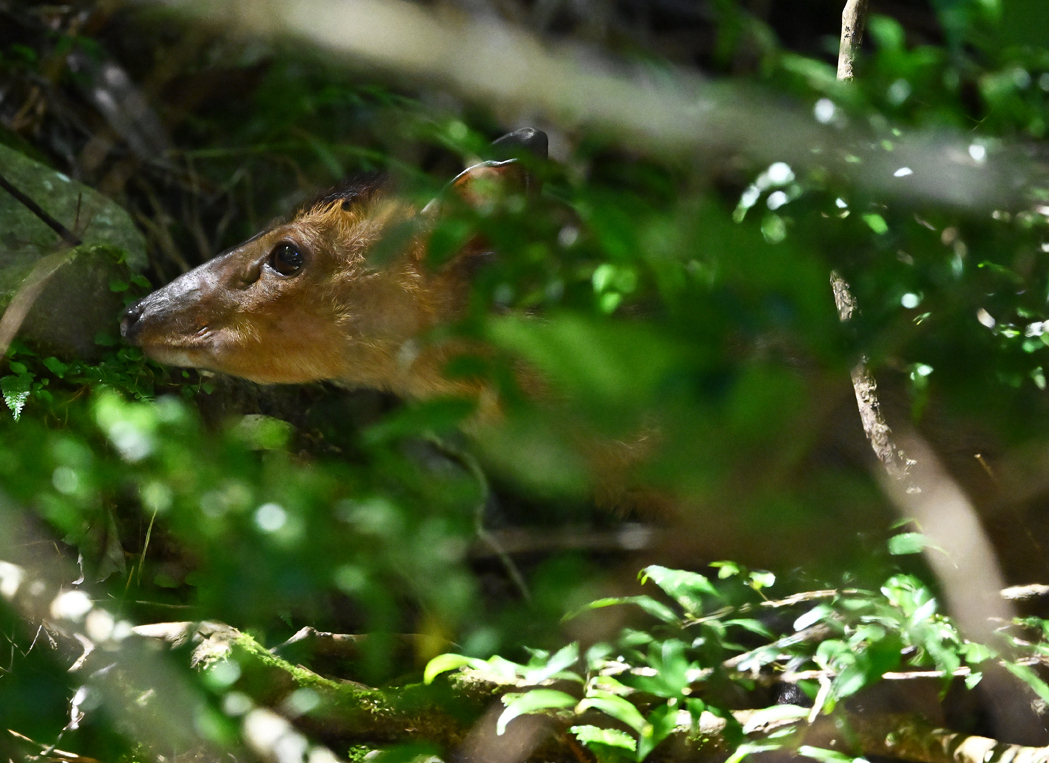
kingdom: Animalia
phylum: Chordata
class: Mammalia
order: Artiodactyla
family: Cervidae
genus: Muntiacus
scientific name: Muntiacus reevesi
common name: Reeves' muntjac
